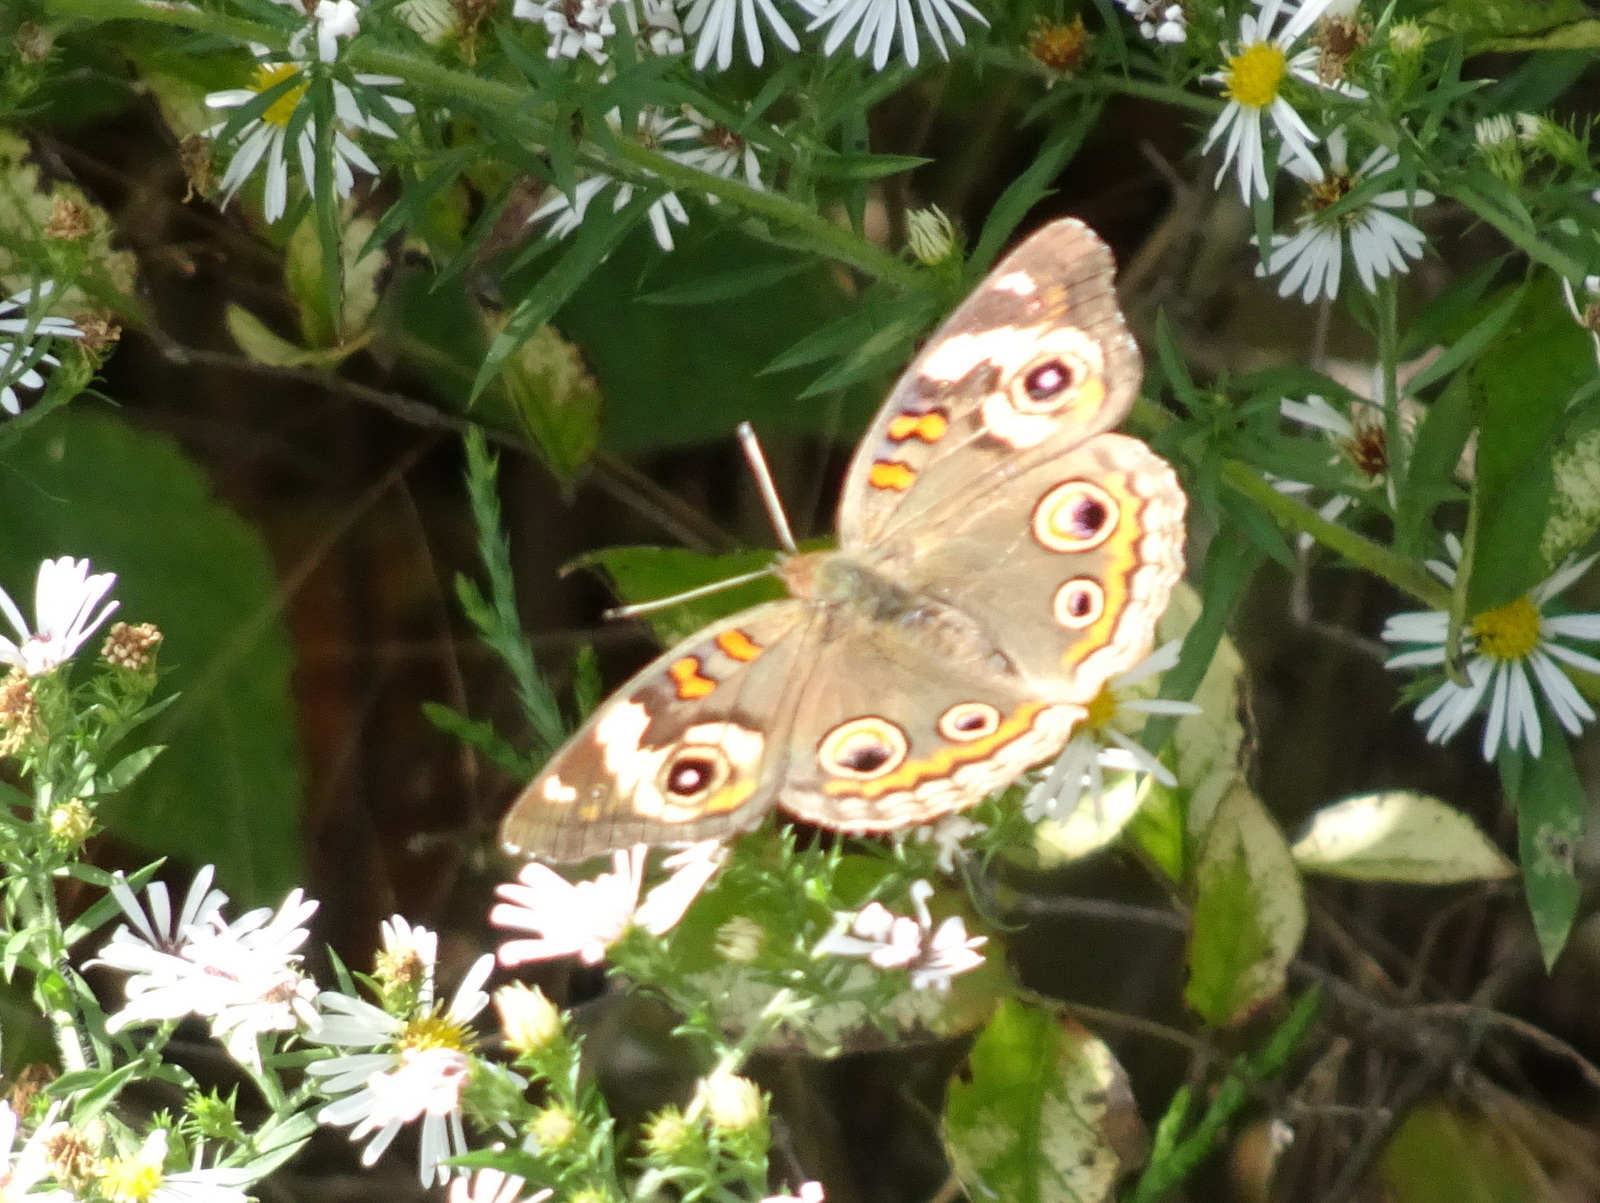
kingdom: Animalia
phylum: Arthropoda
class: Insecta
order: Lepidoptera
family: Nymphalidae
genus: Junonia
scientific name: Junonia coenia
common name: Common buckeye
